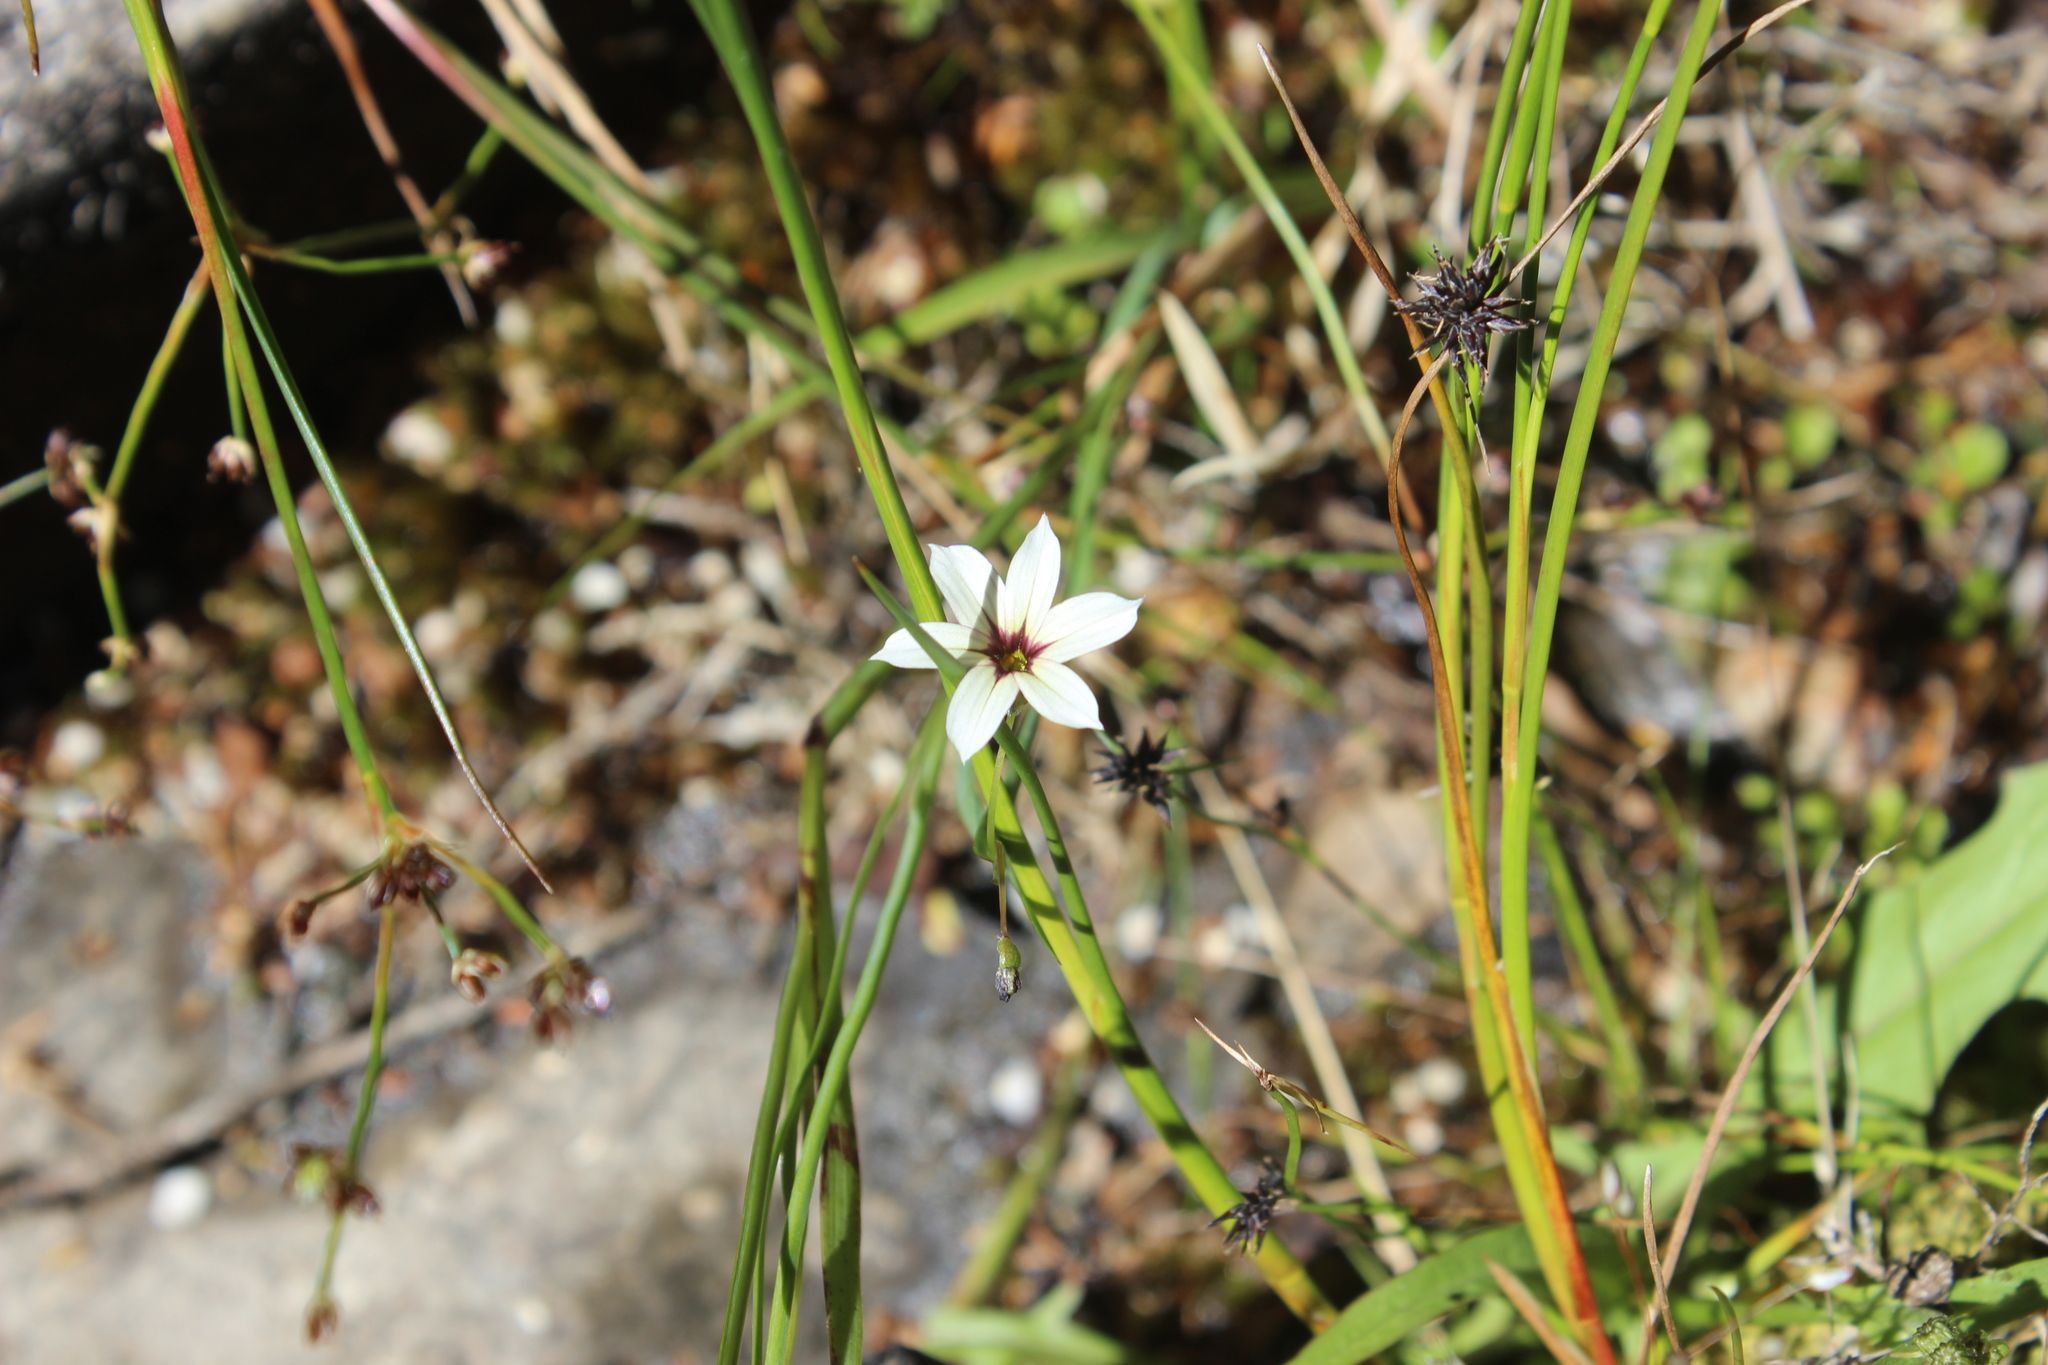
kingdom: Plantae
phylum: Tracheophyta
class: Liliopsida
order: Asparagales
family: Iridaceae
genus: Sisyrinchium
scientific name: Sisyrinchium micranthum
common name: Bermuda pigroot
